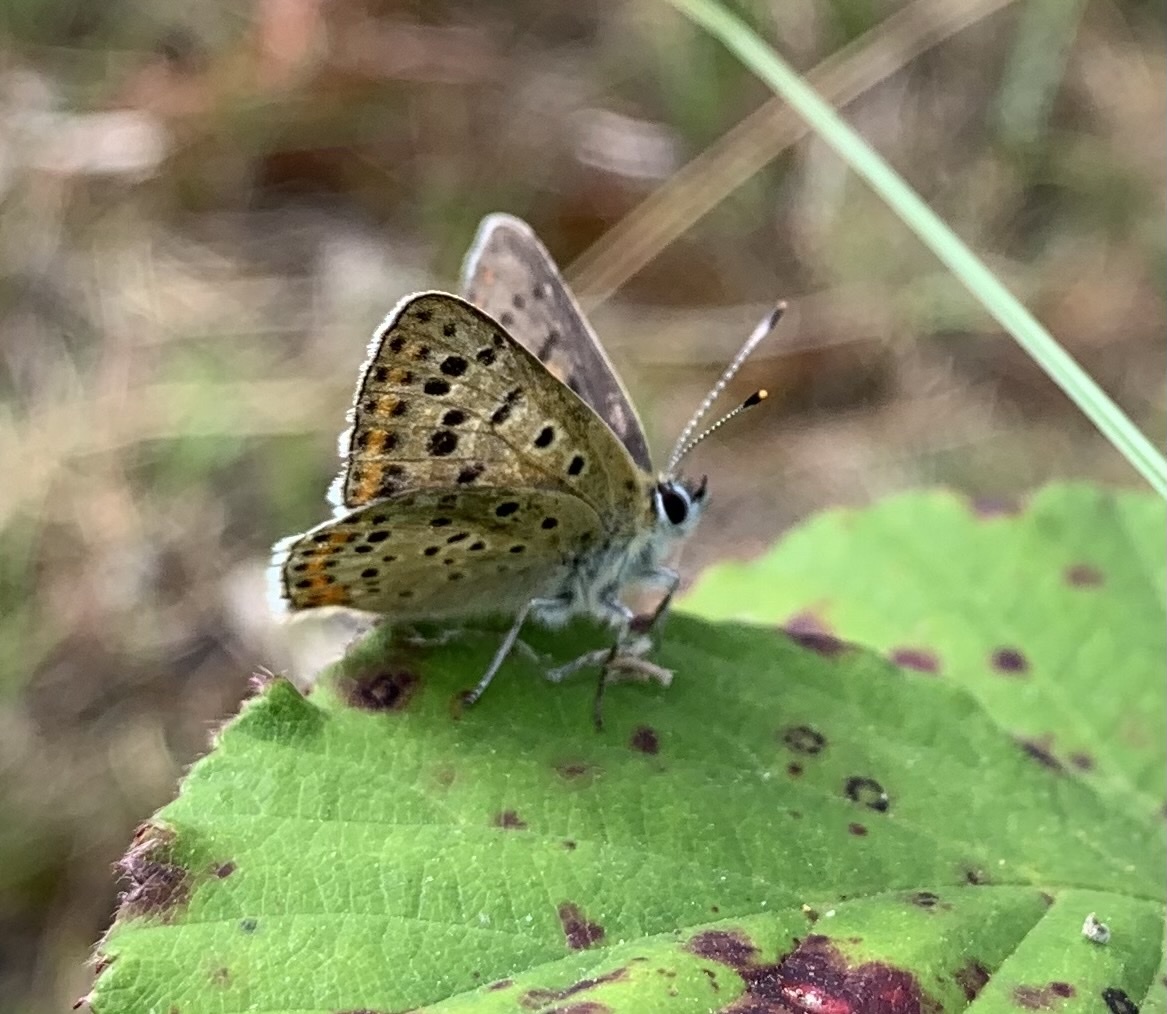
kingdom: Animalia
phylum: Arthropoda
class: Insecta
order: Lepidoptera
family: Lycaenidae
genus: Loweia
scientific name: Loweia tityrus
